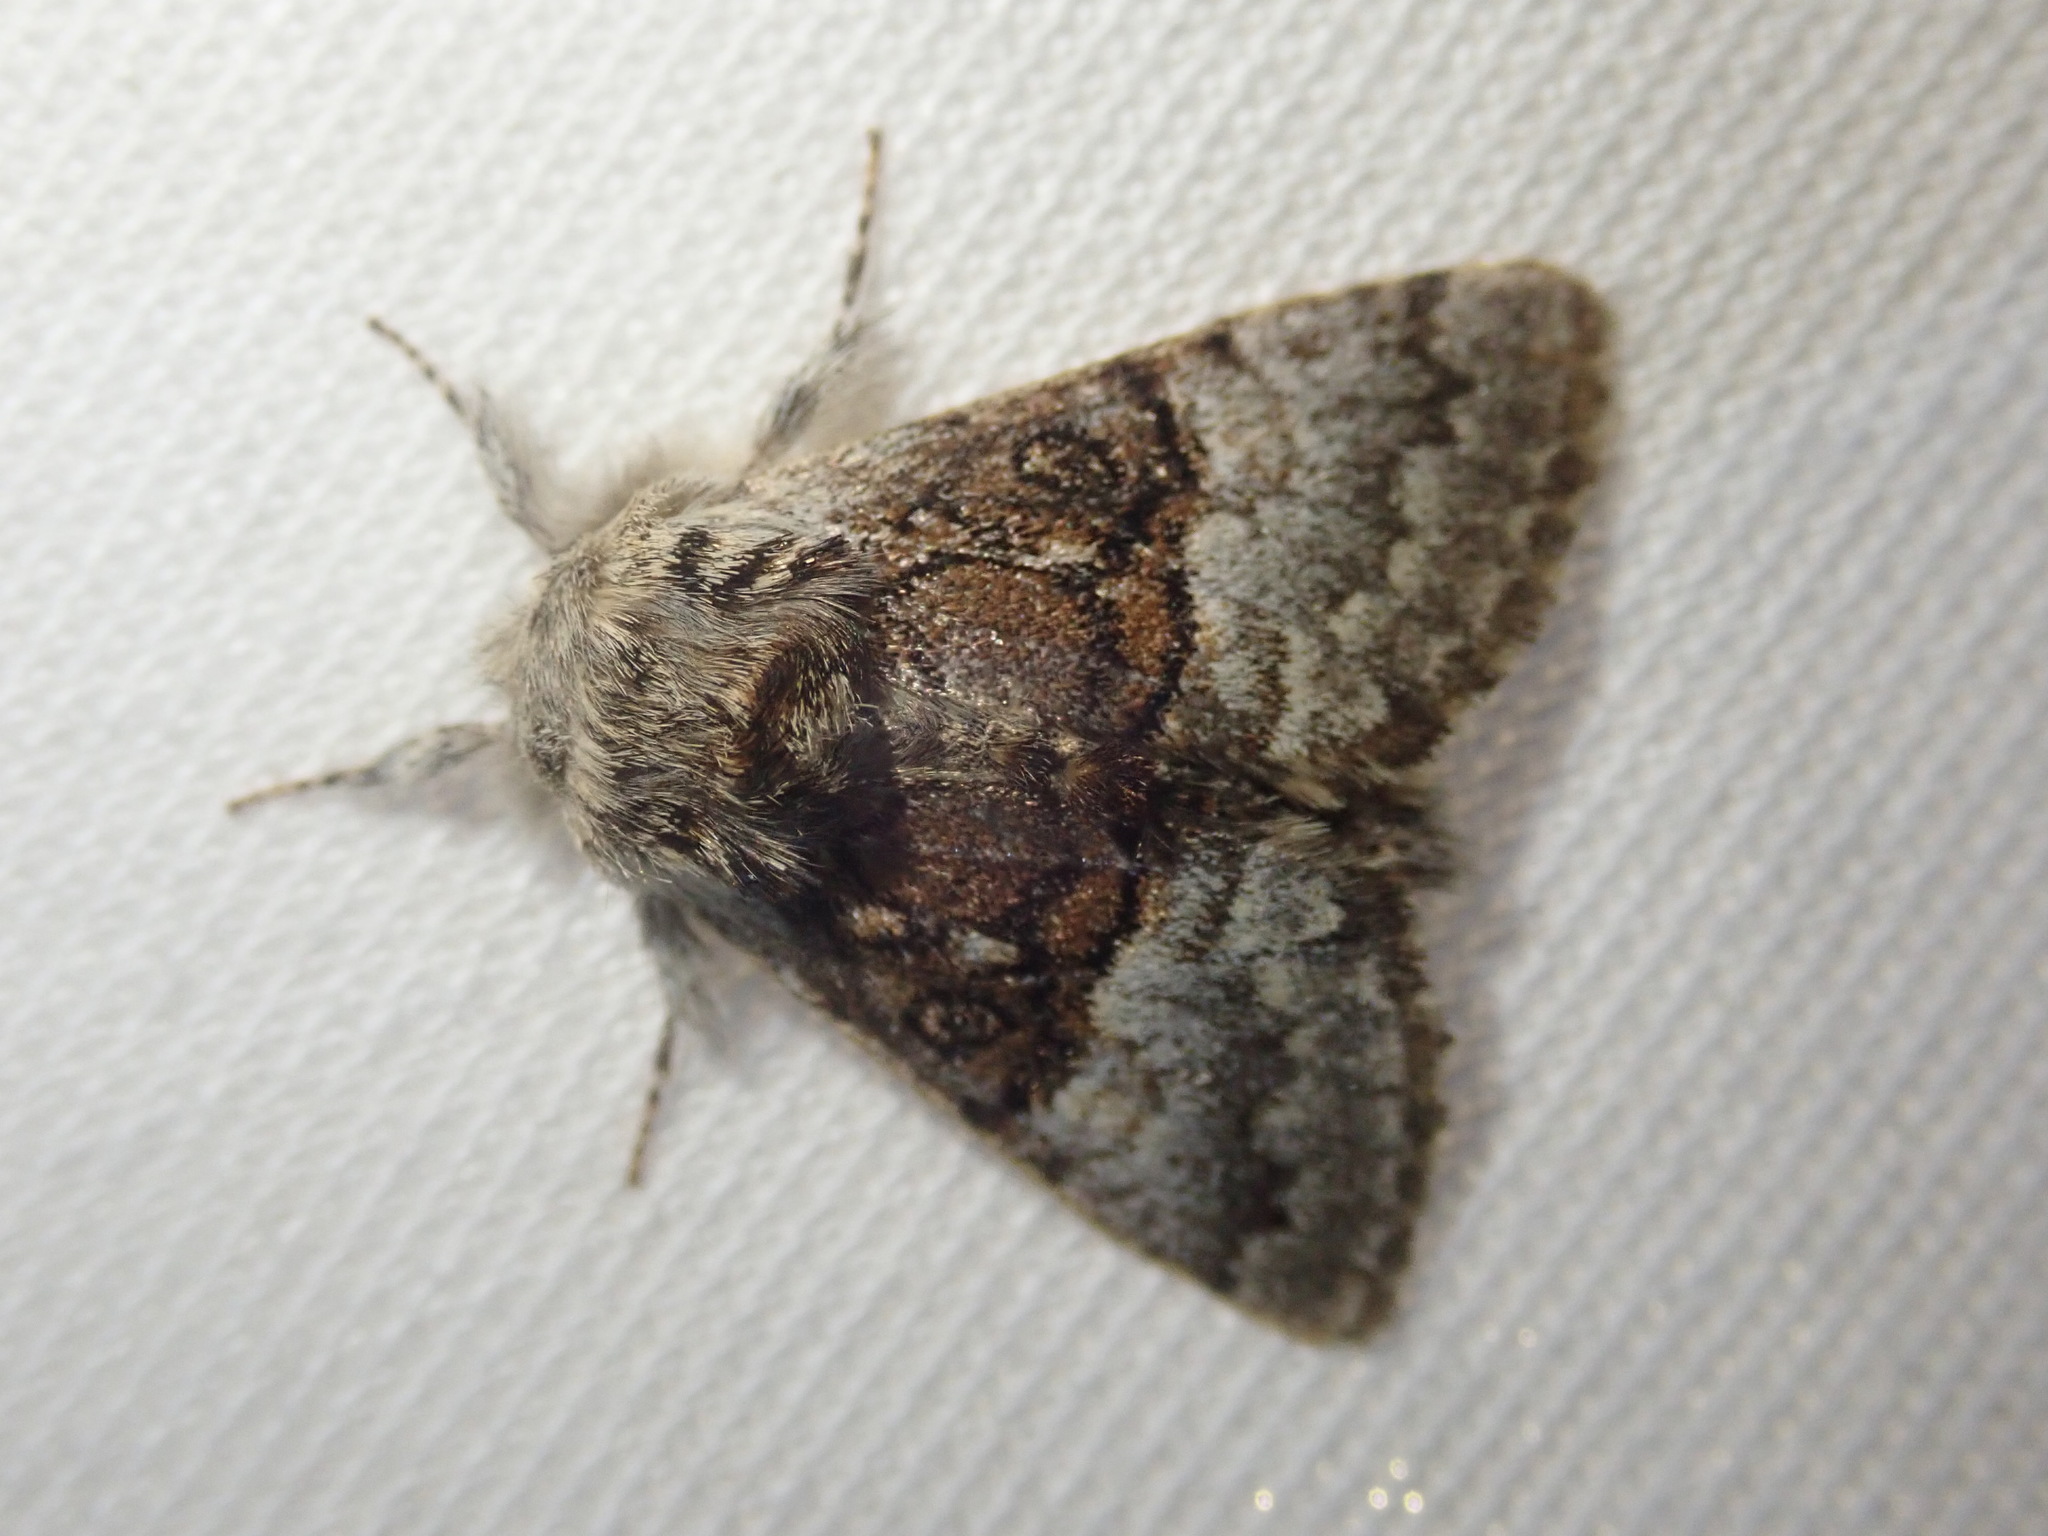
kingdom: Animalia
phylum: Arthropoda
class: Insecta
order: Lepidoptera
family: Noctuidae
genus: Colocasia
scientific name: Colocasia coryli
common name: Nut-tree tussock
